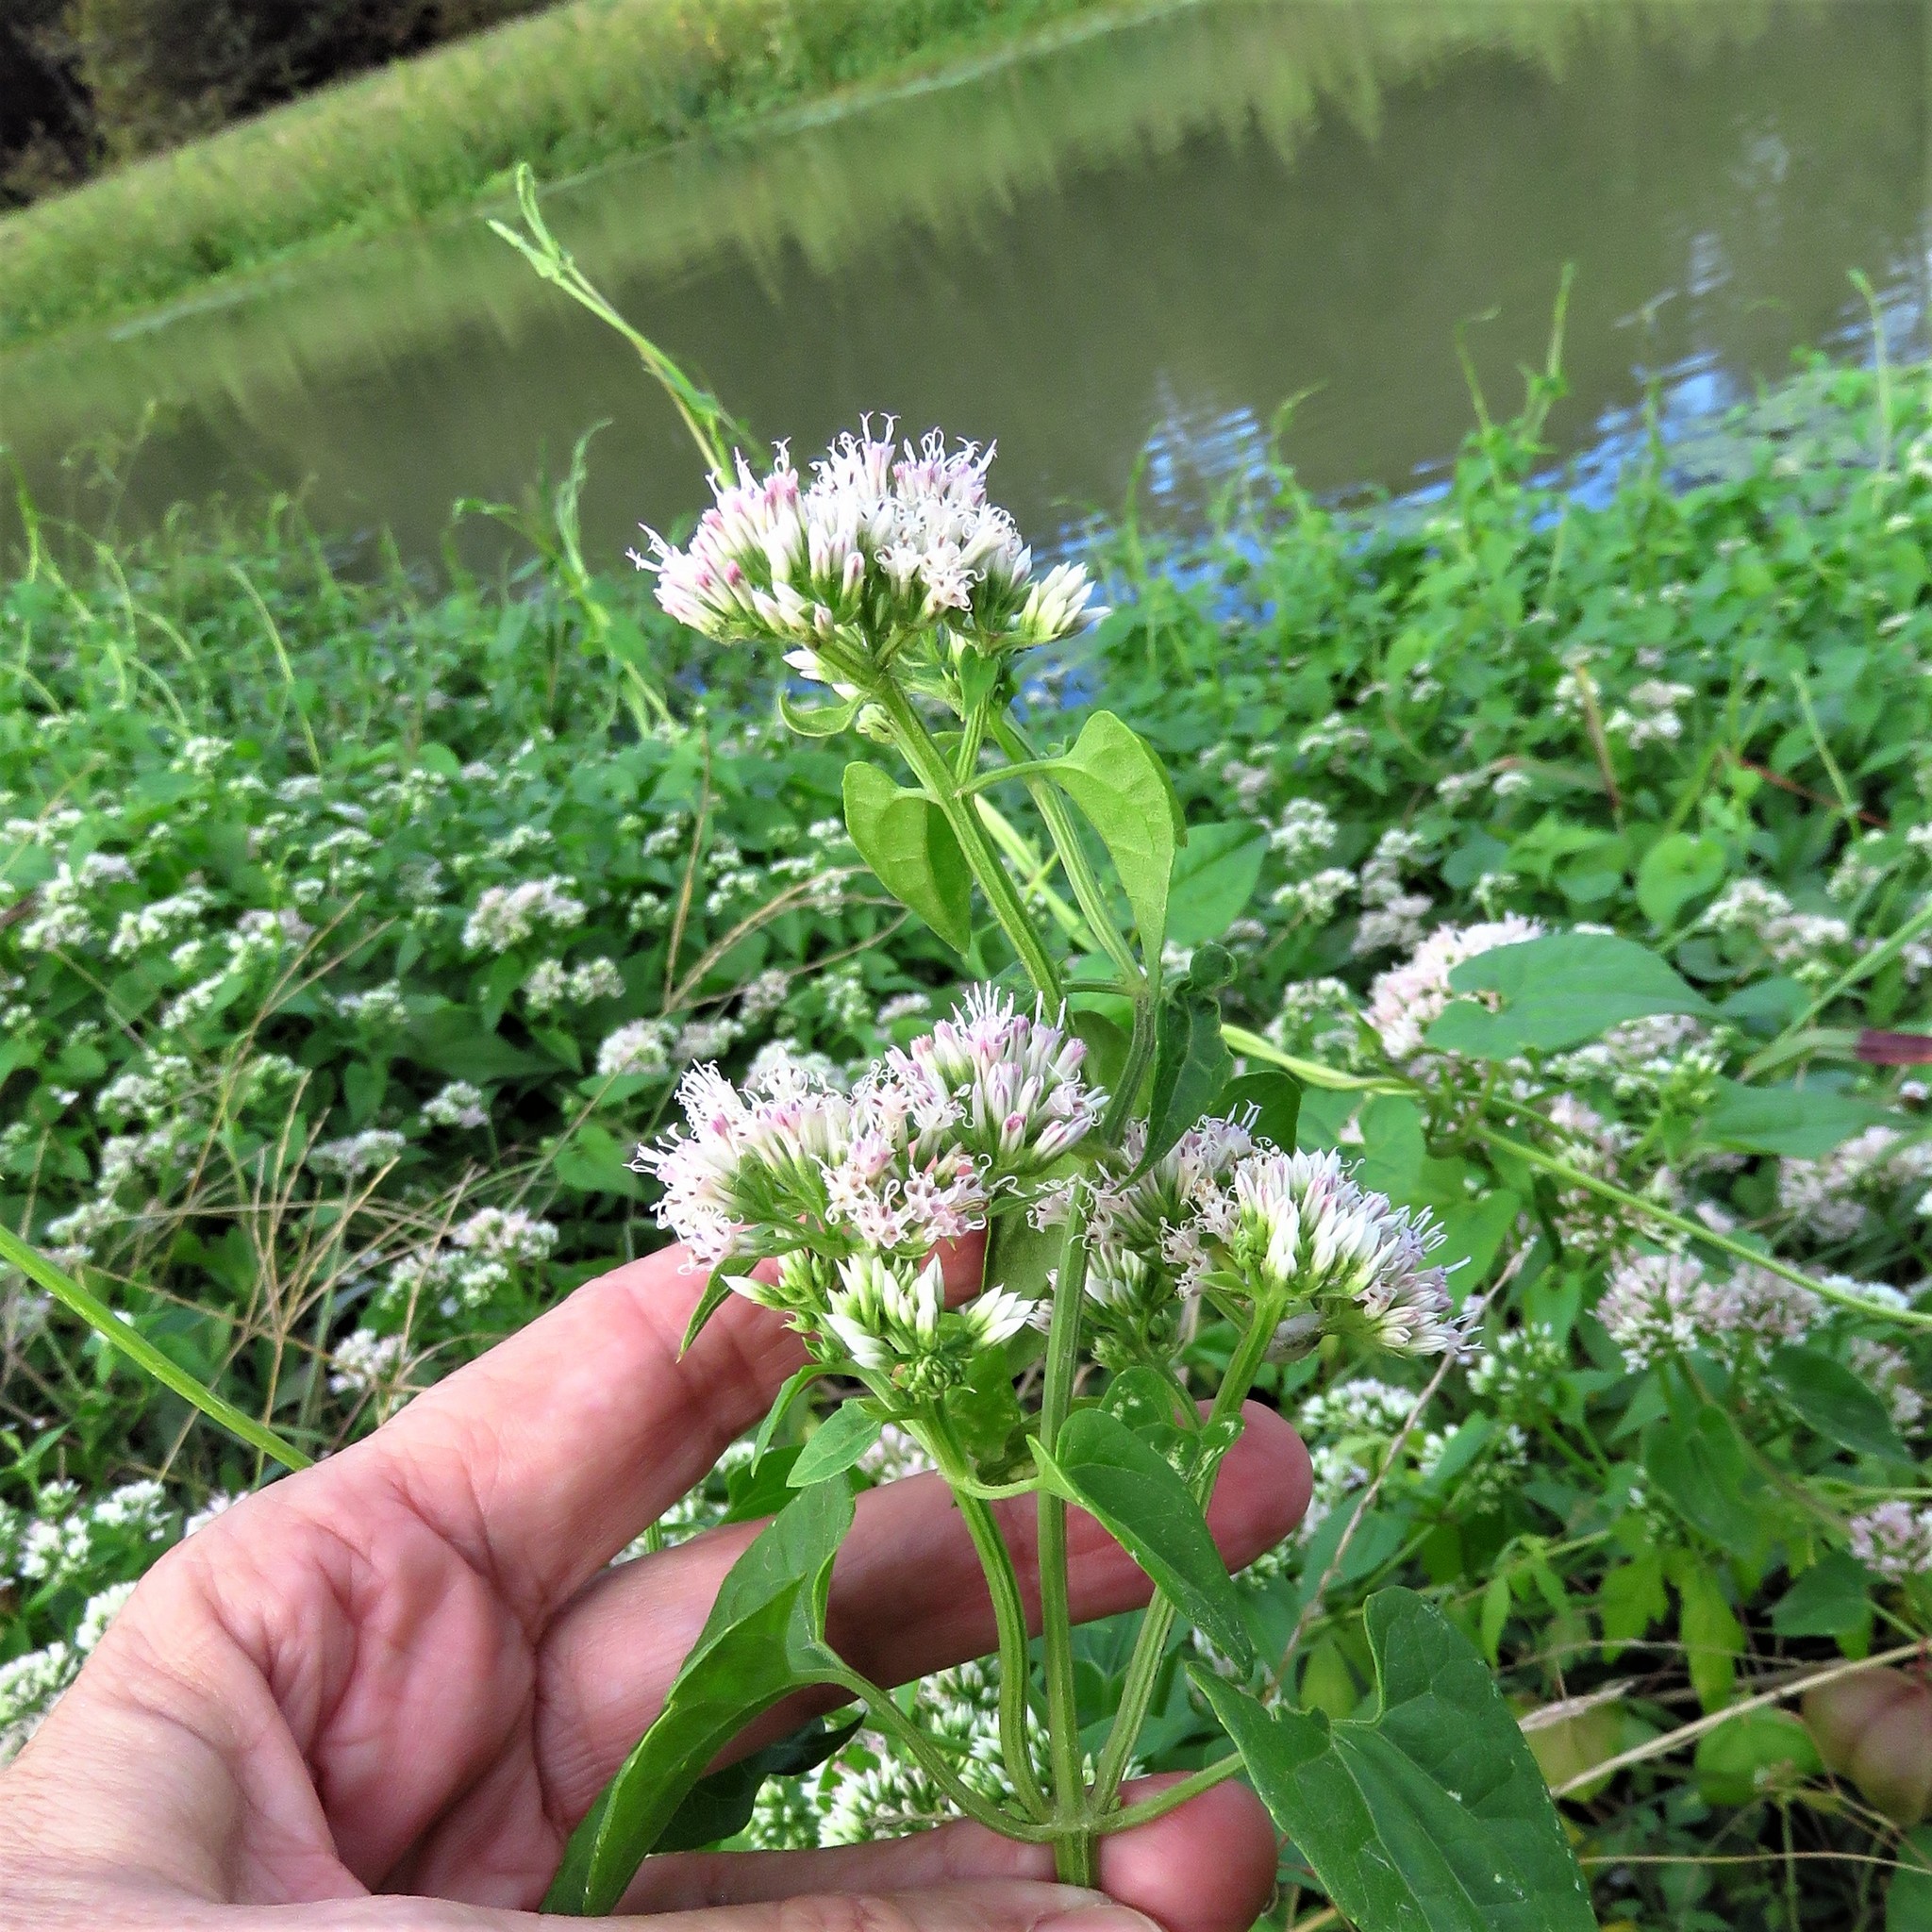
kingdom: Plantae
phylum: Tracheophyta
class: Magnoliopsida
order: Asterales
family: Asteraceae
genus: Mikania
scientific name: Mikania scandens
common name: Climbing hempvine
